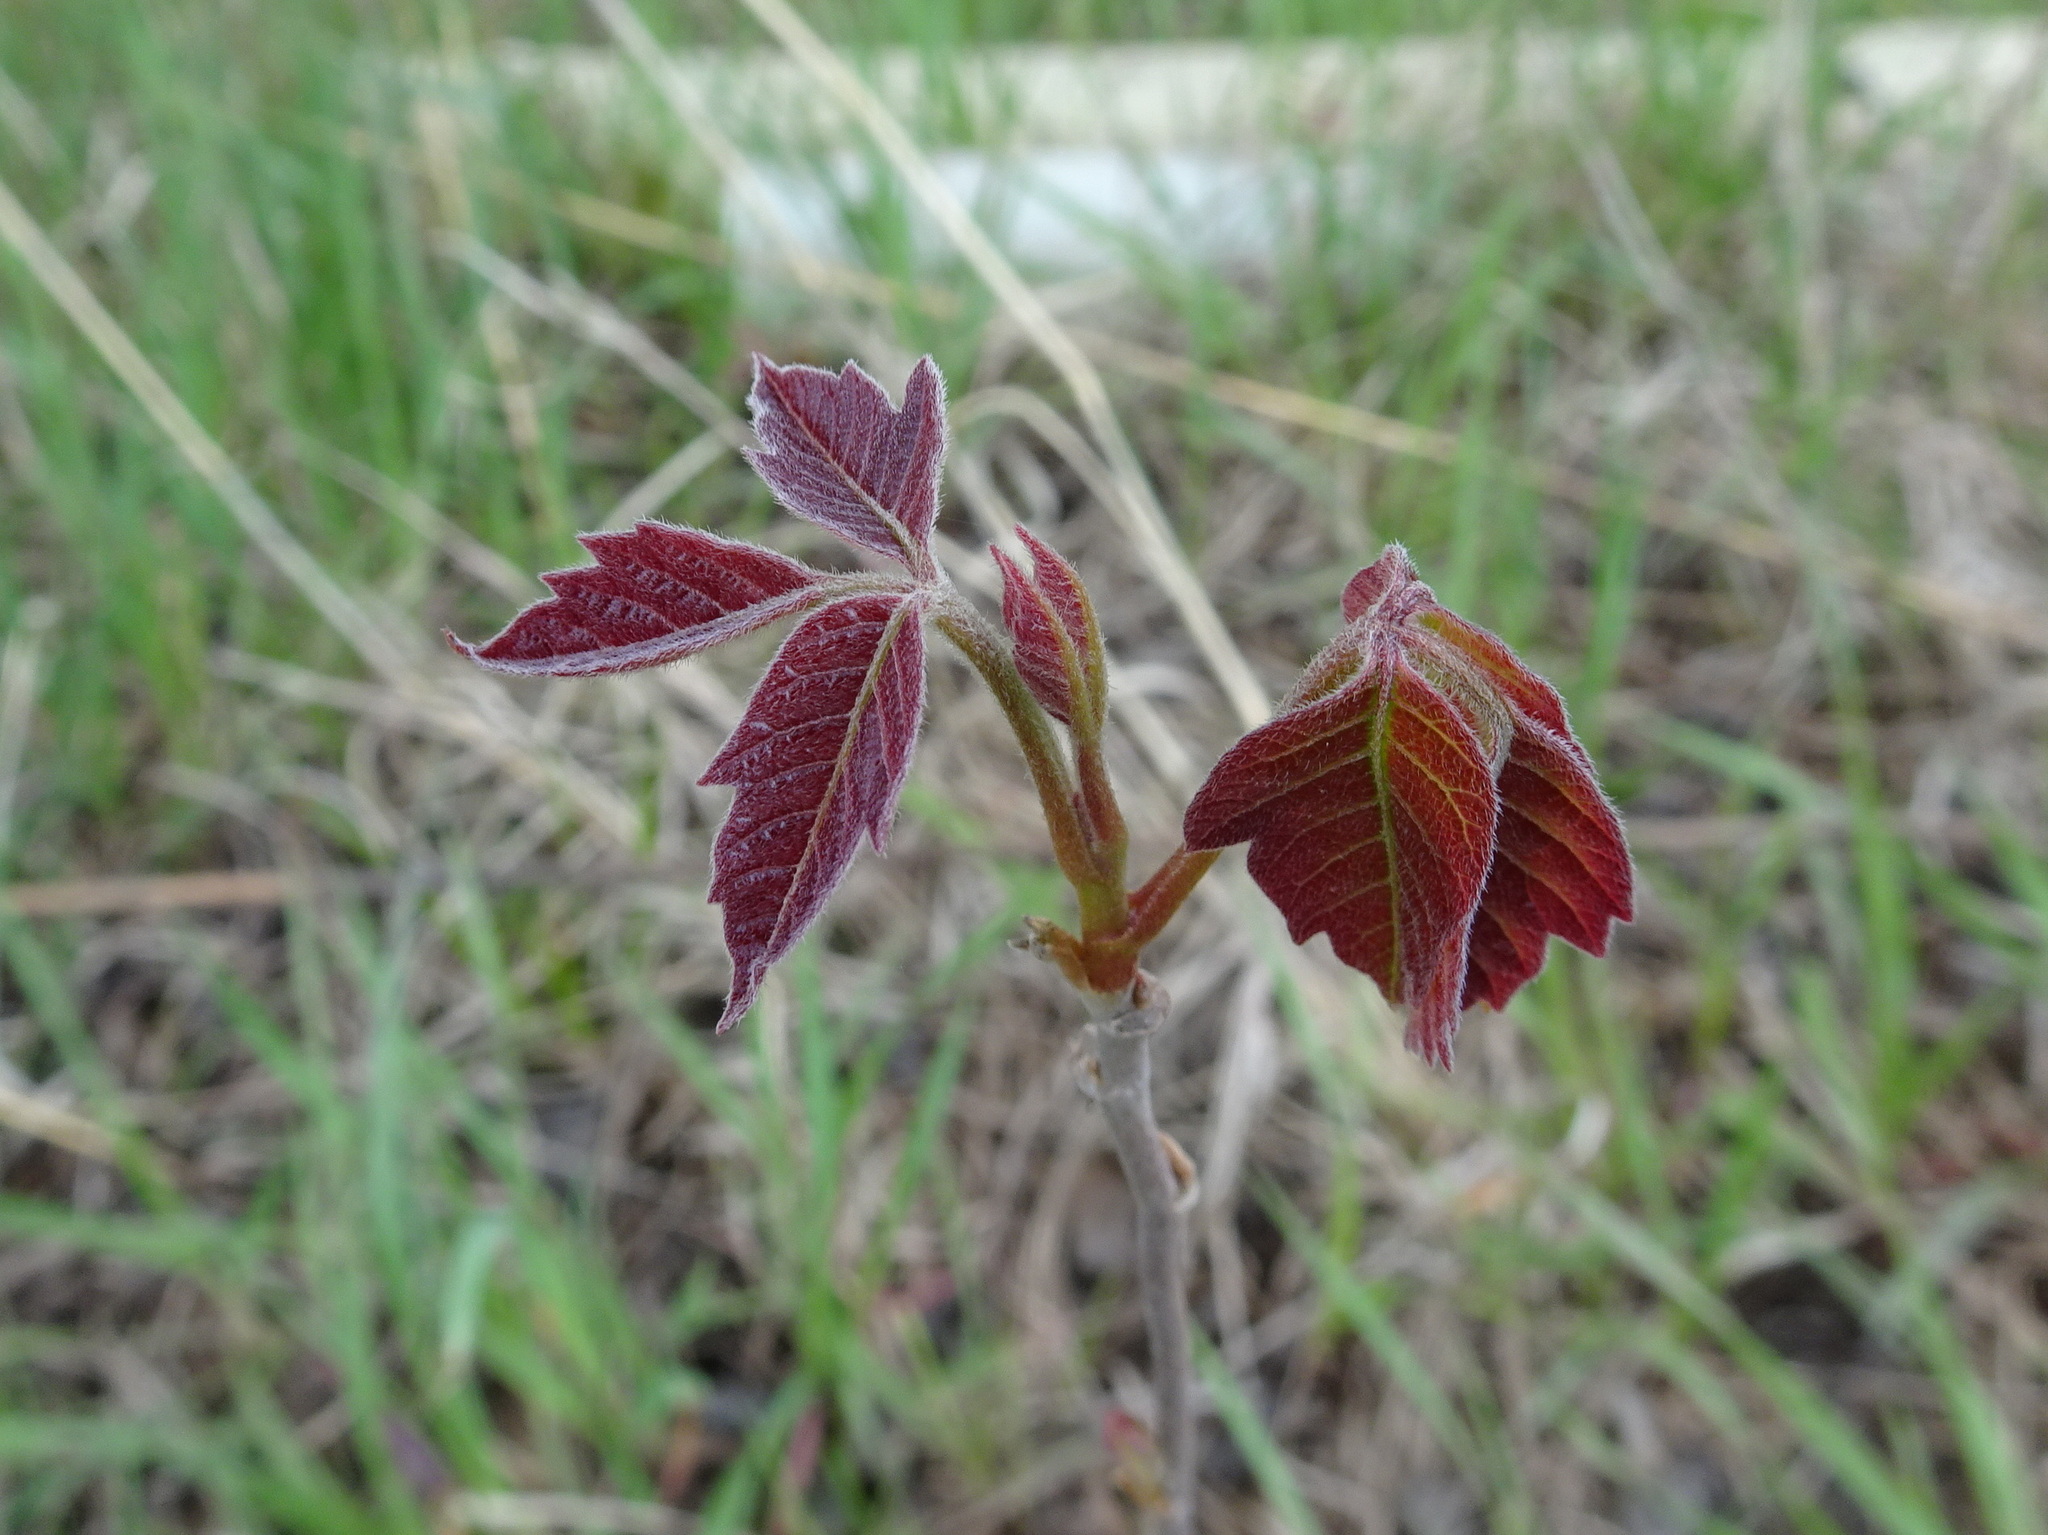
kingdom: Plantae
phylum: Tracheophyta
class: Magnoliopsida
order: Sapindales
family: Anacardiaceae
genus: Toxicodendron
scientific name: Toxicodendron radicans
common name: Poison ivy
